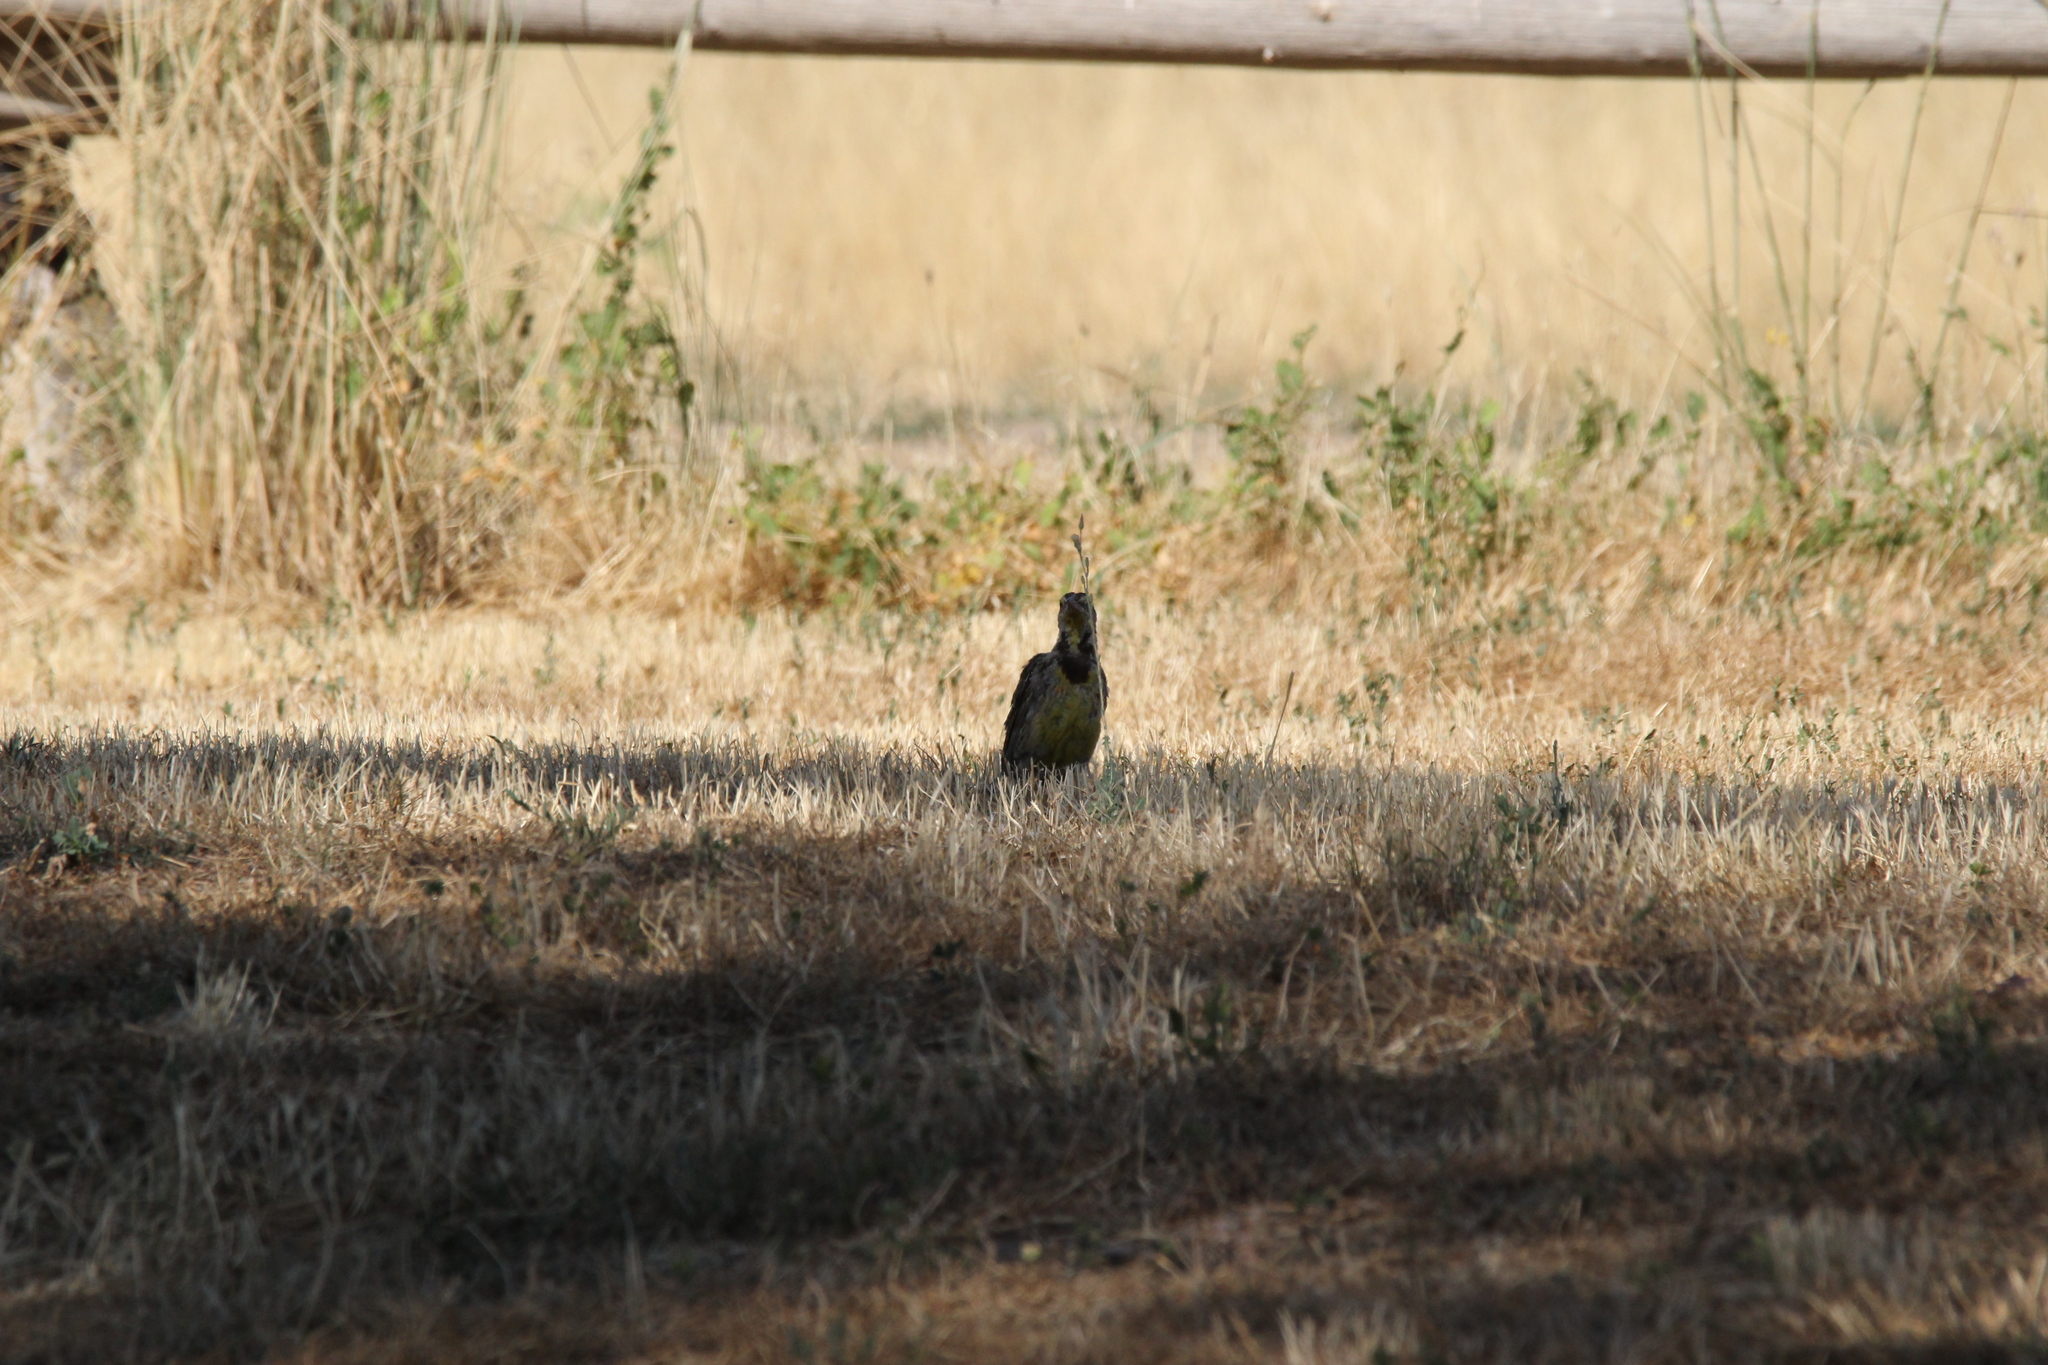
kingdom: Animalia
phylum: Chordata
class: Aves
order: Passeriformes
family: Icteridae
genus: Sturnella
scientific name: Sturnella neglecta
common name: Western meadowlark
